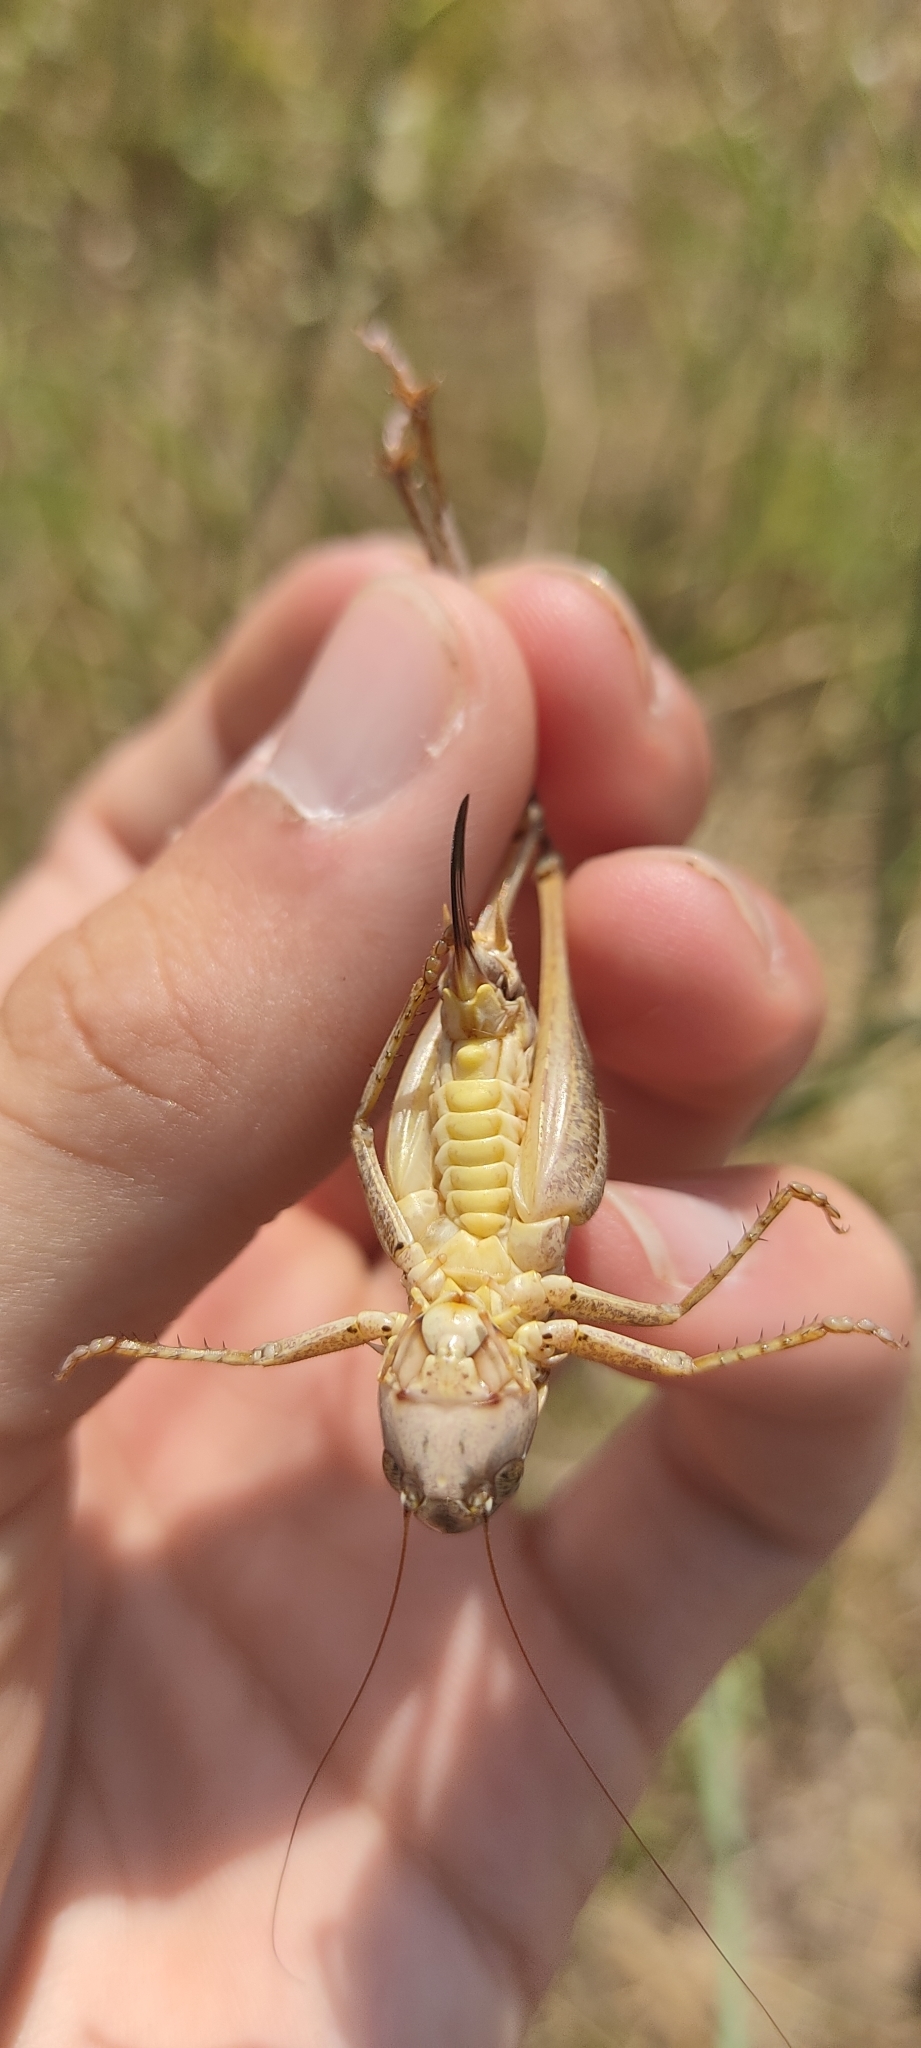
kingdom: Animalia
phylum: Arthropoda
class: Insecta
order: Orthoptera
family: Tettigoniidae
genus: Platycleis
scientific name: Platycleis falx
